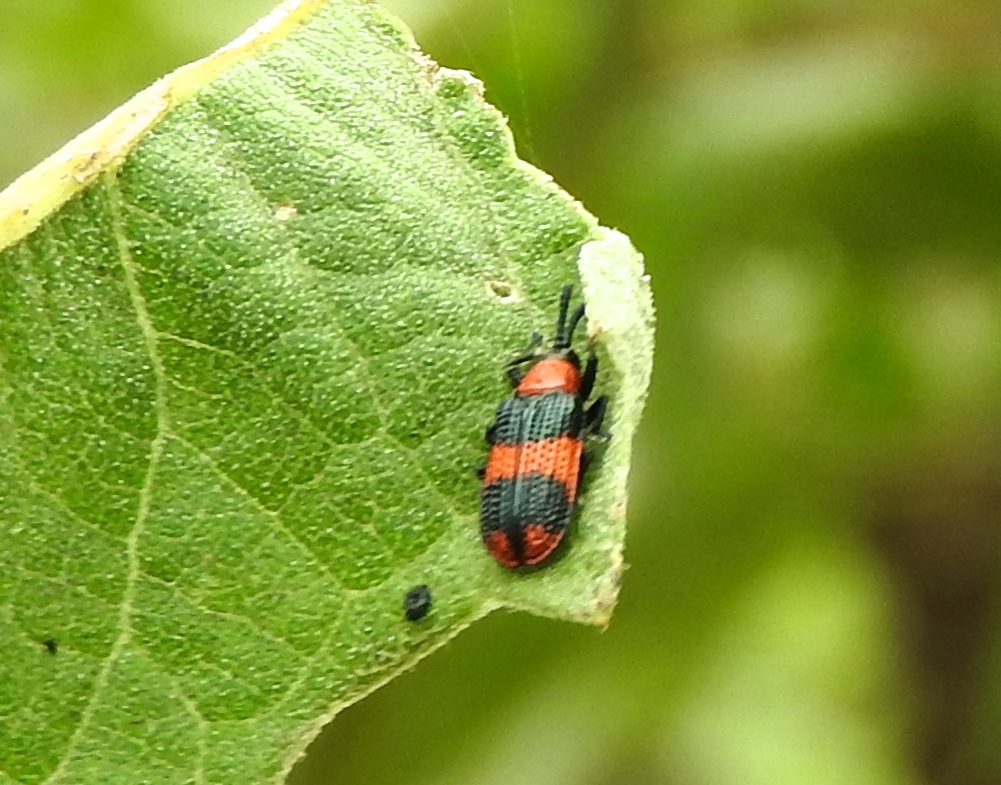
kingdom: Animalia
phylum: Arthropoda
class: Insecta
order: Coleoptera
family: Chrysomelidae
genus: Microrhopala
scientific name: Microrhopala beckeri
